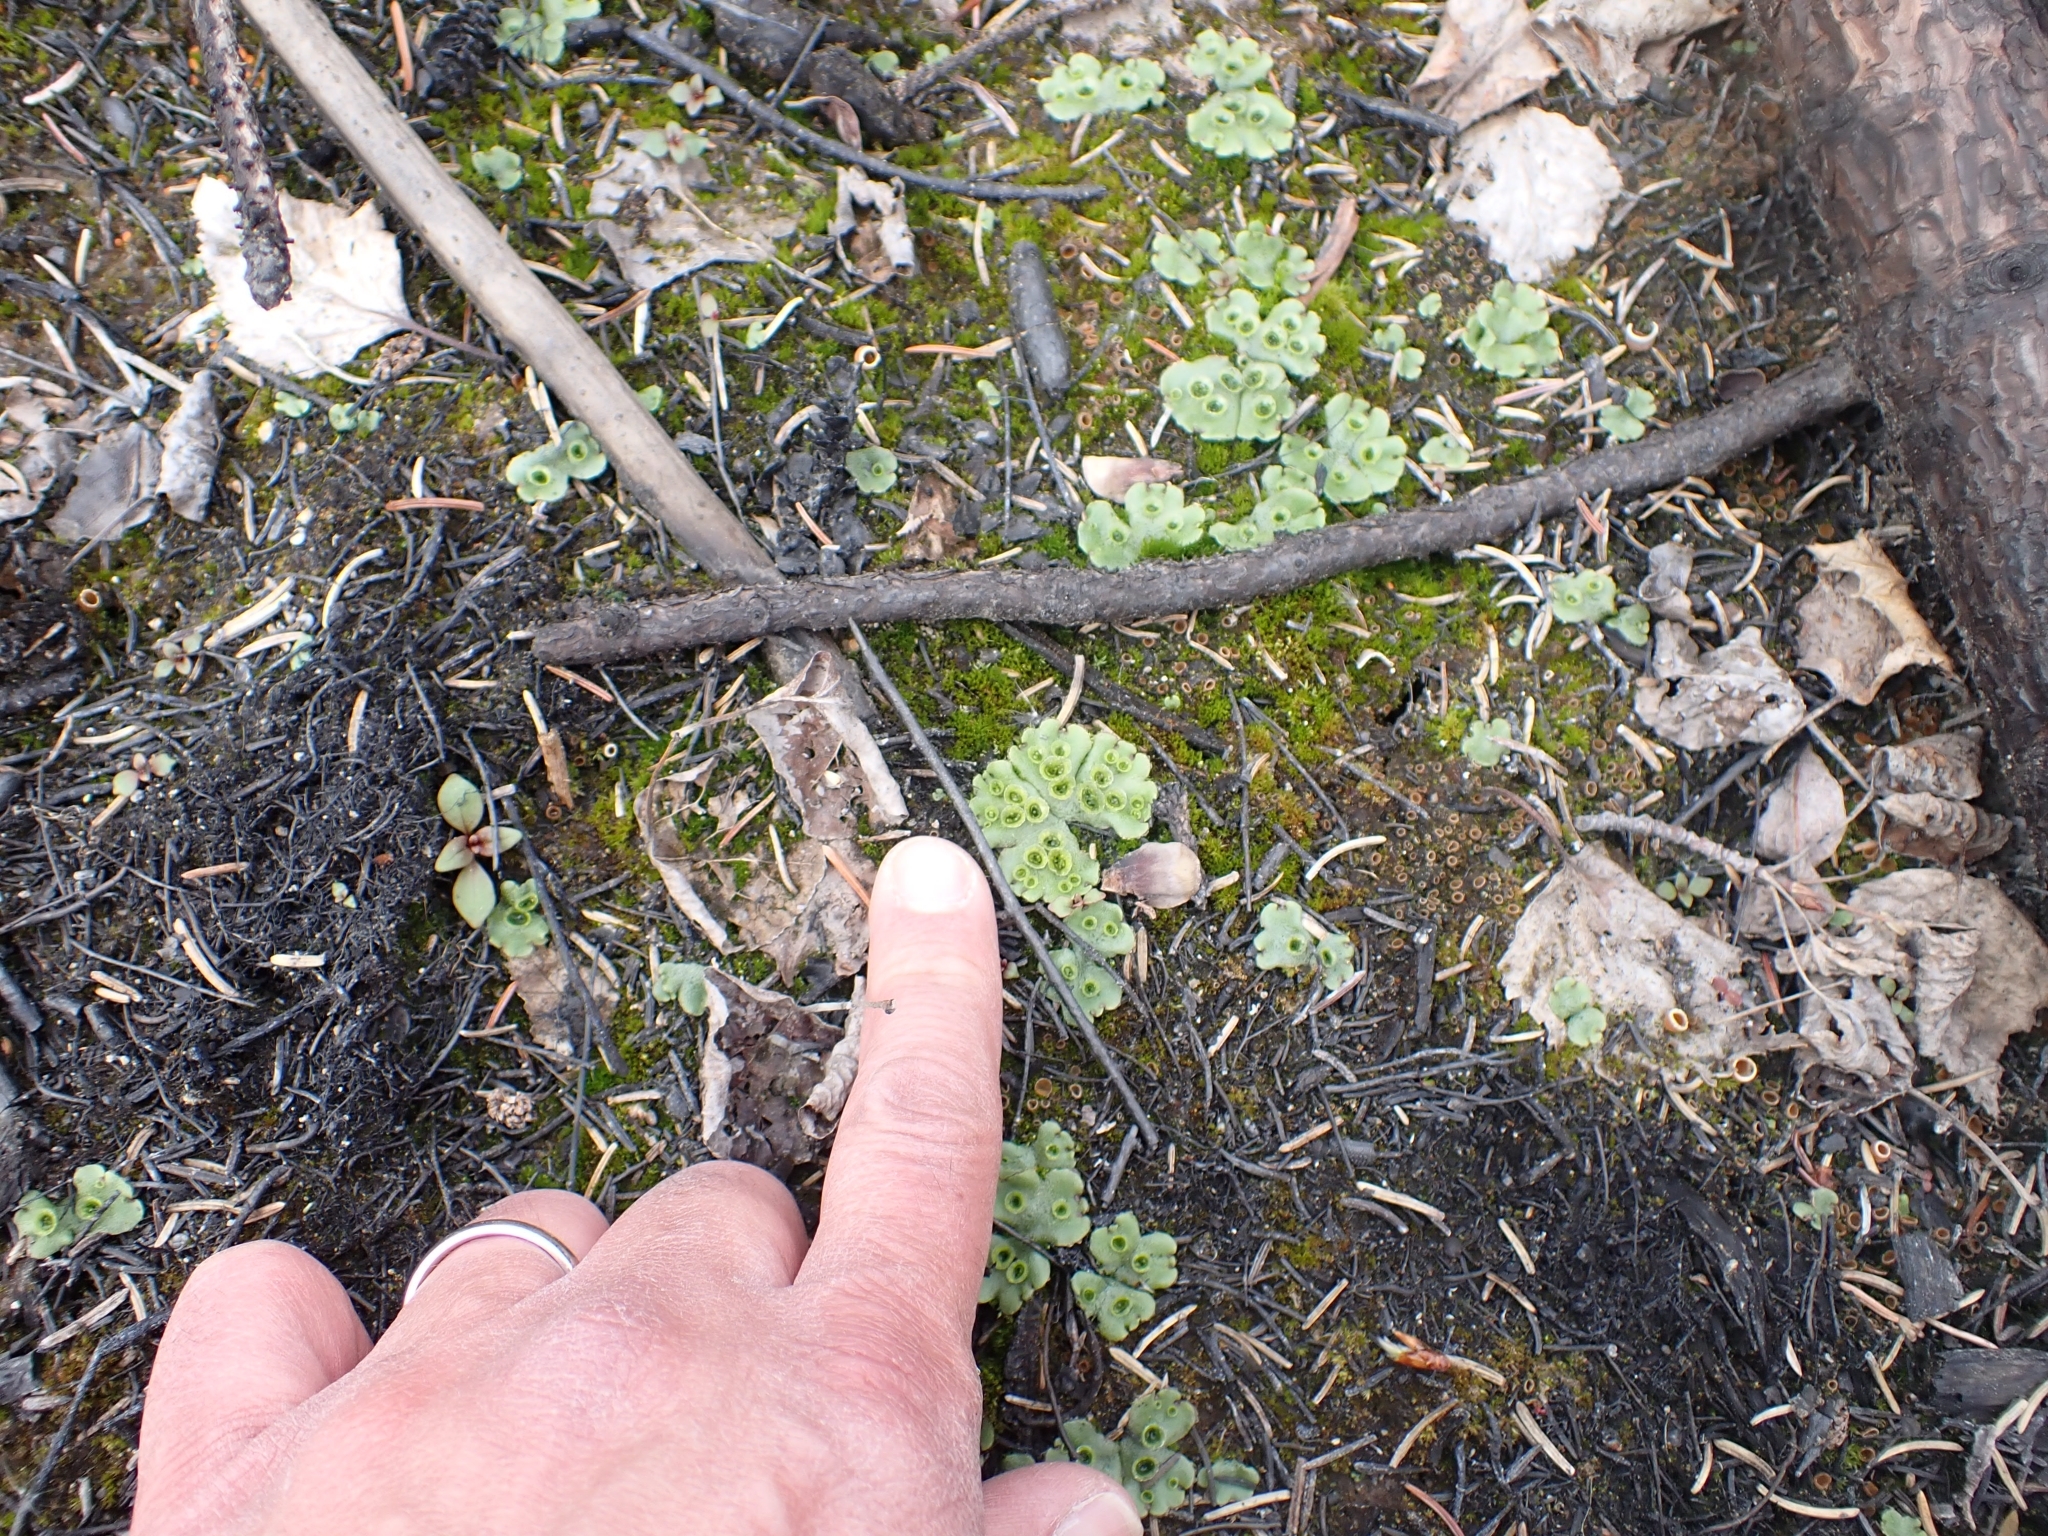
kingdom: Plantae
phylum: Marchantiophyta
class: Marchantiopsida
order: Marchantiales
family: Marchantiaceae
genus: Marchantia
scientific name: Marchantia polymorpha
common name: Common liverwort
